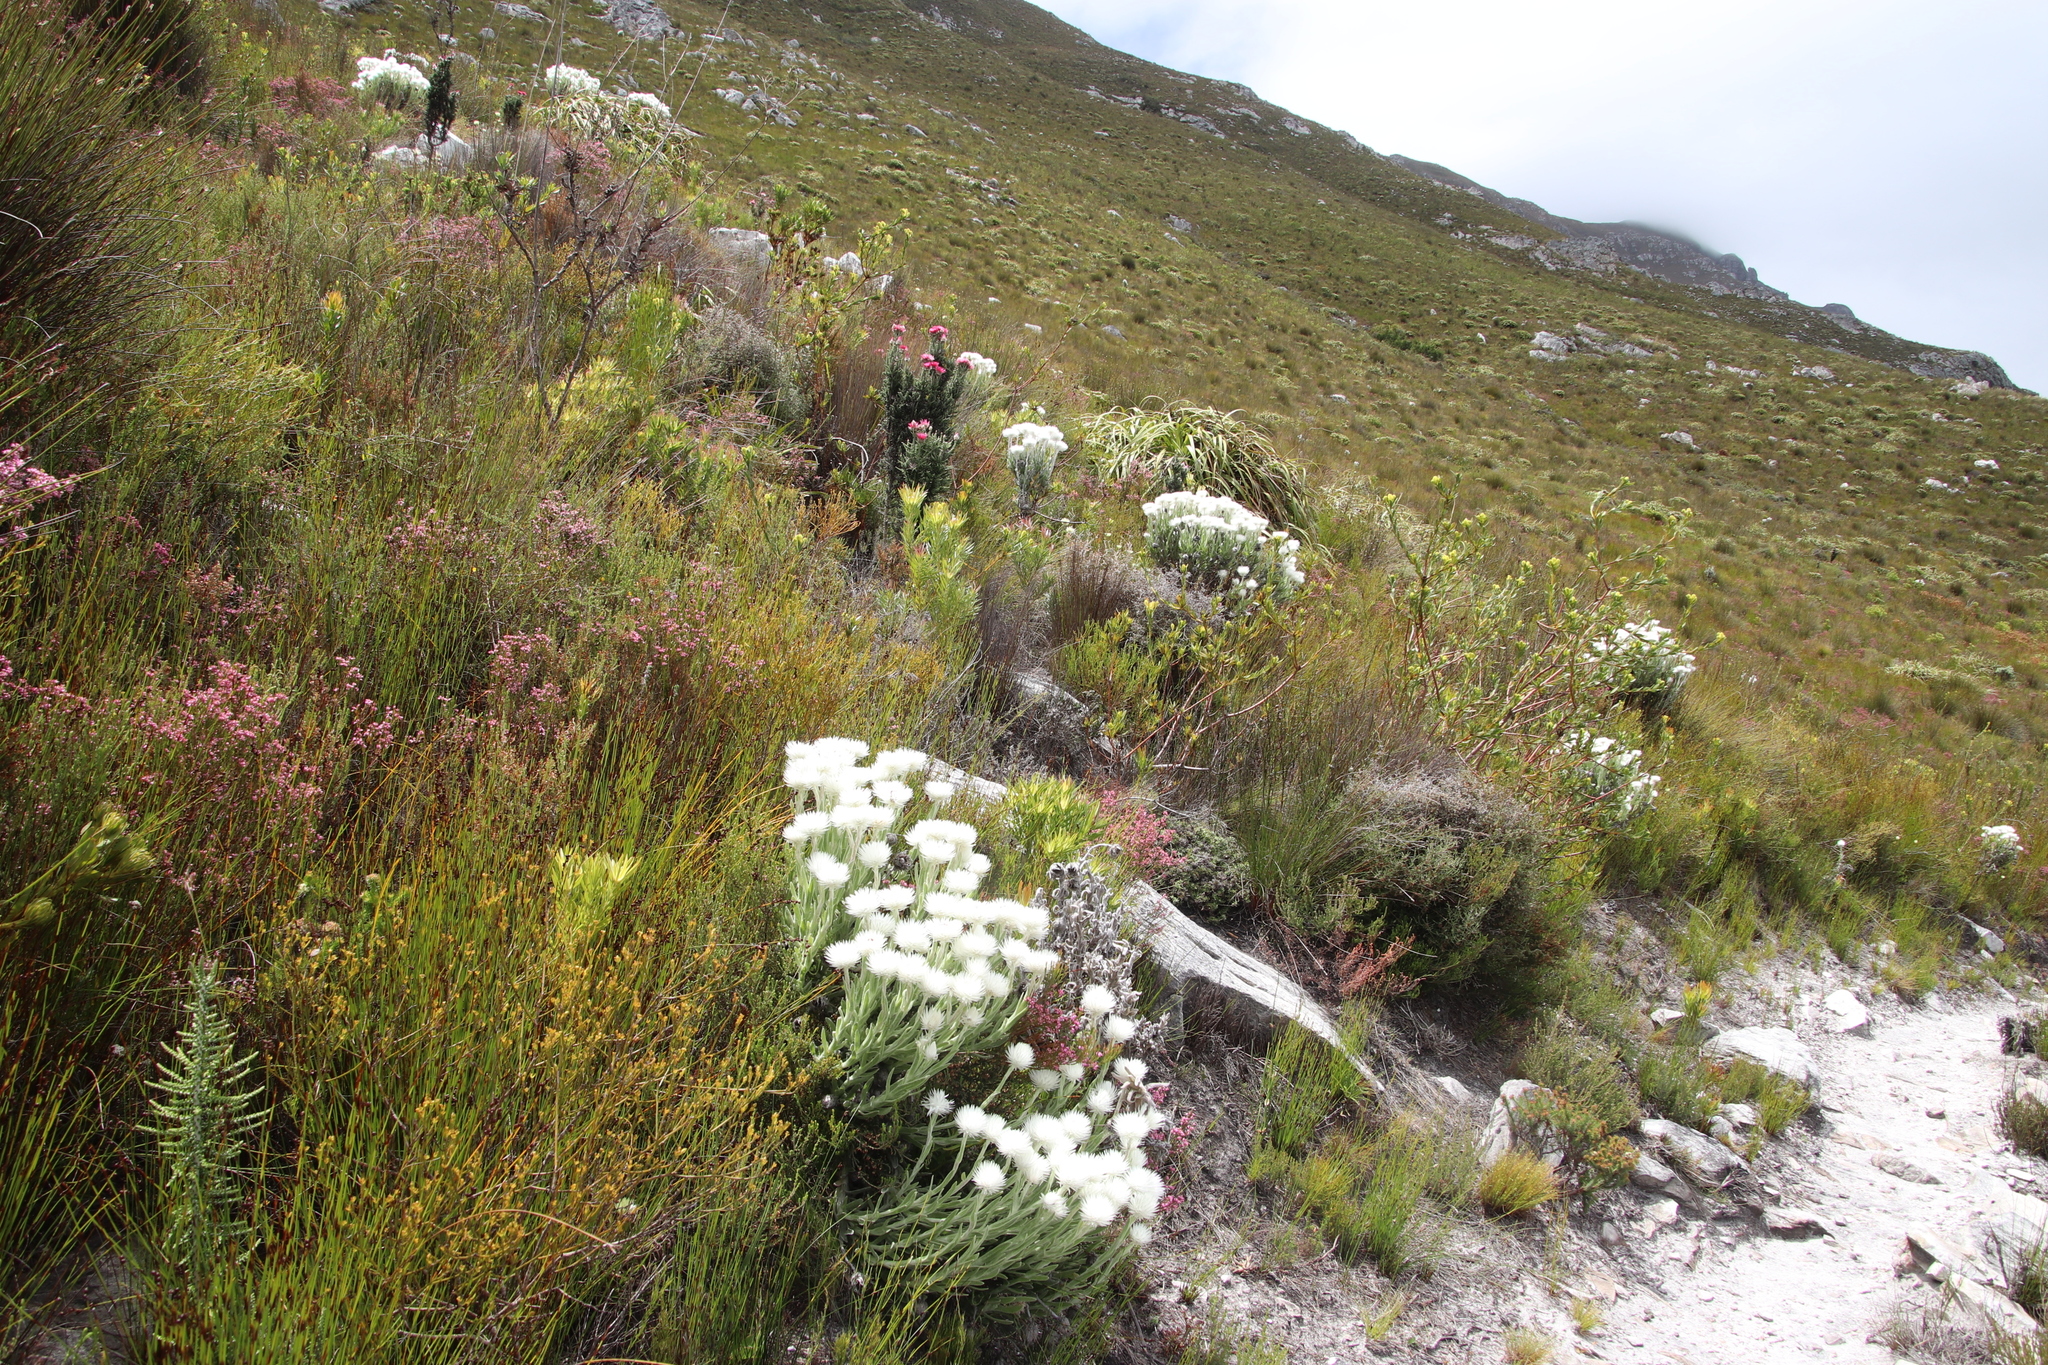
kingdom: Plantae
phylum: Tracheophyta
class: Magnoliopsida
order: Asterales
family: Asteraceae
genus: Syncarpha
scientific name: Syncarpha vestita
